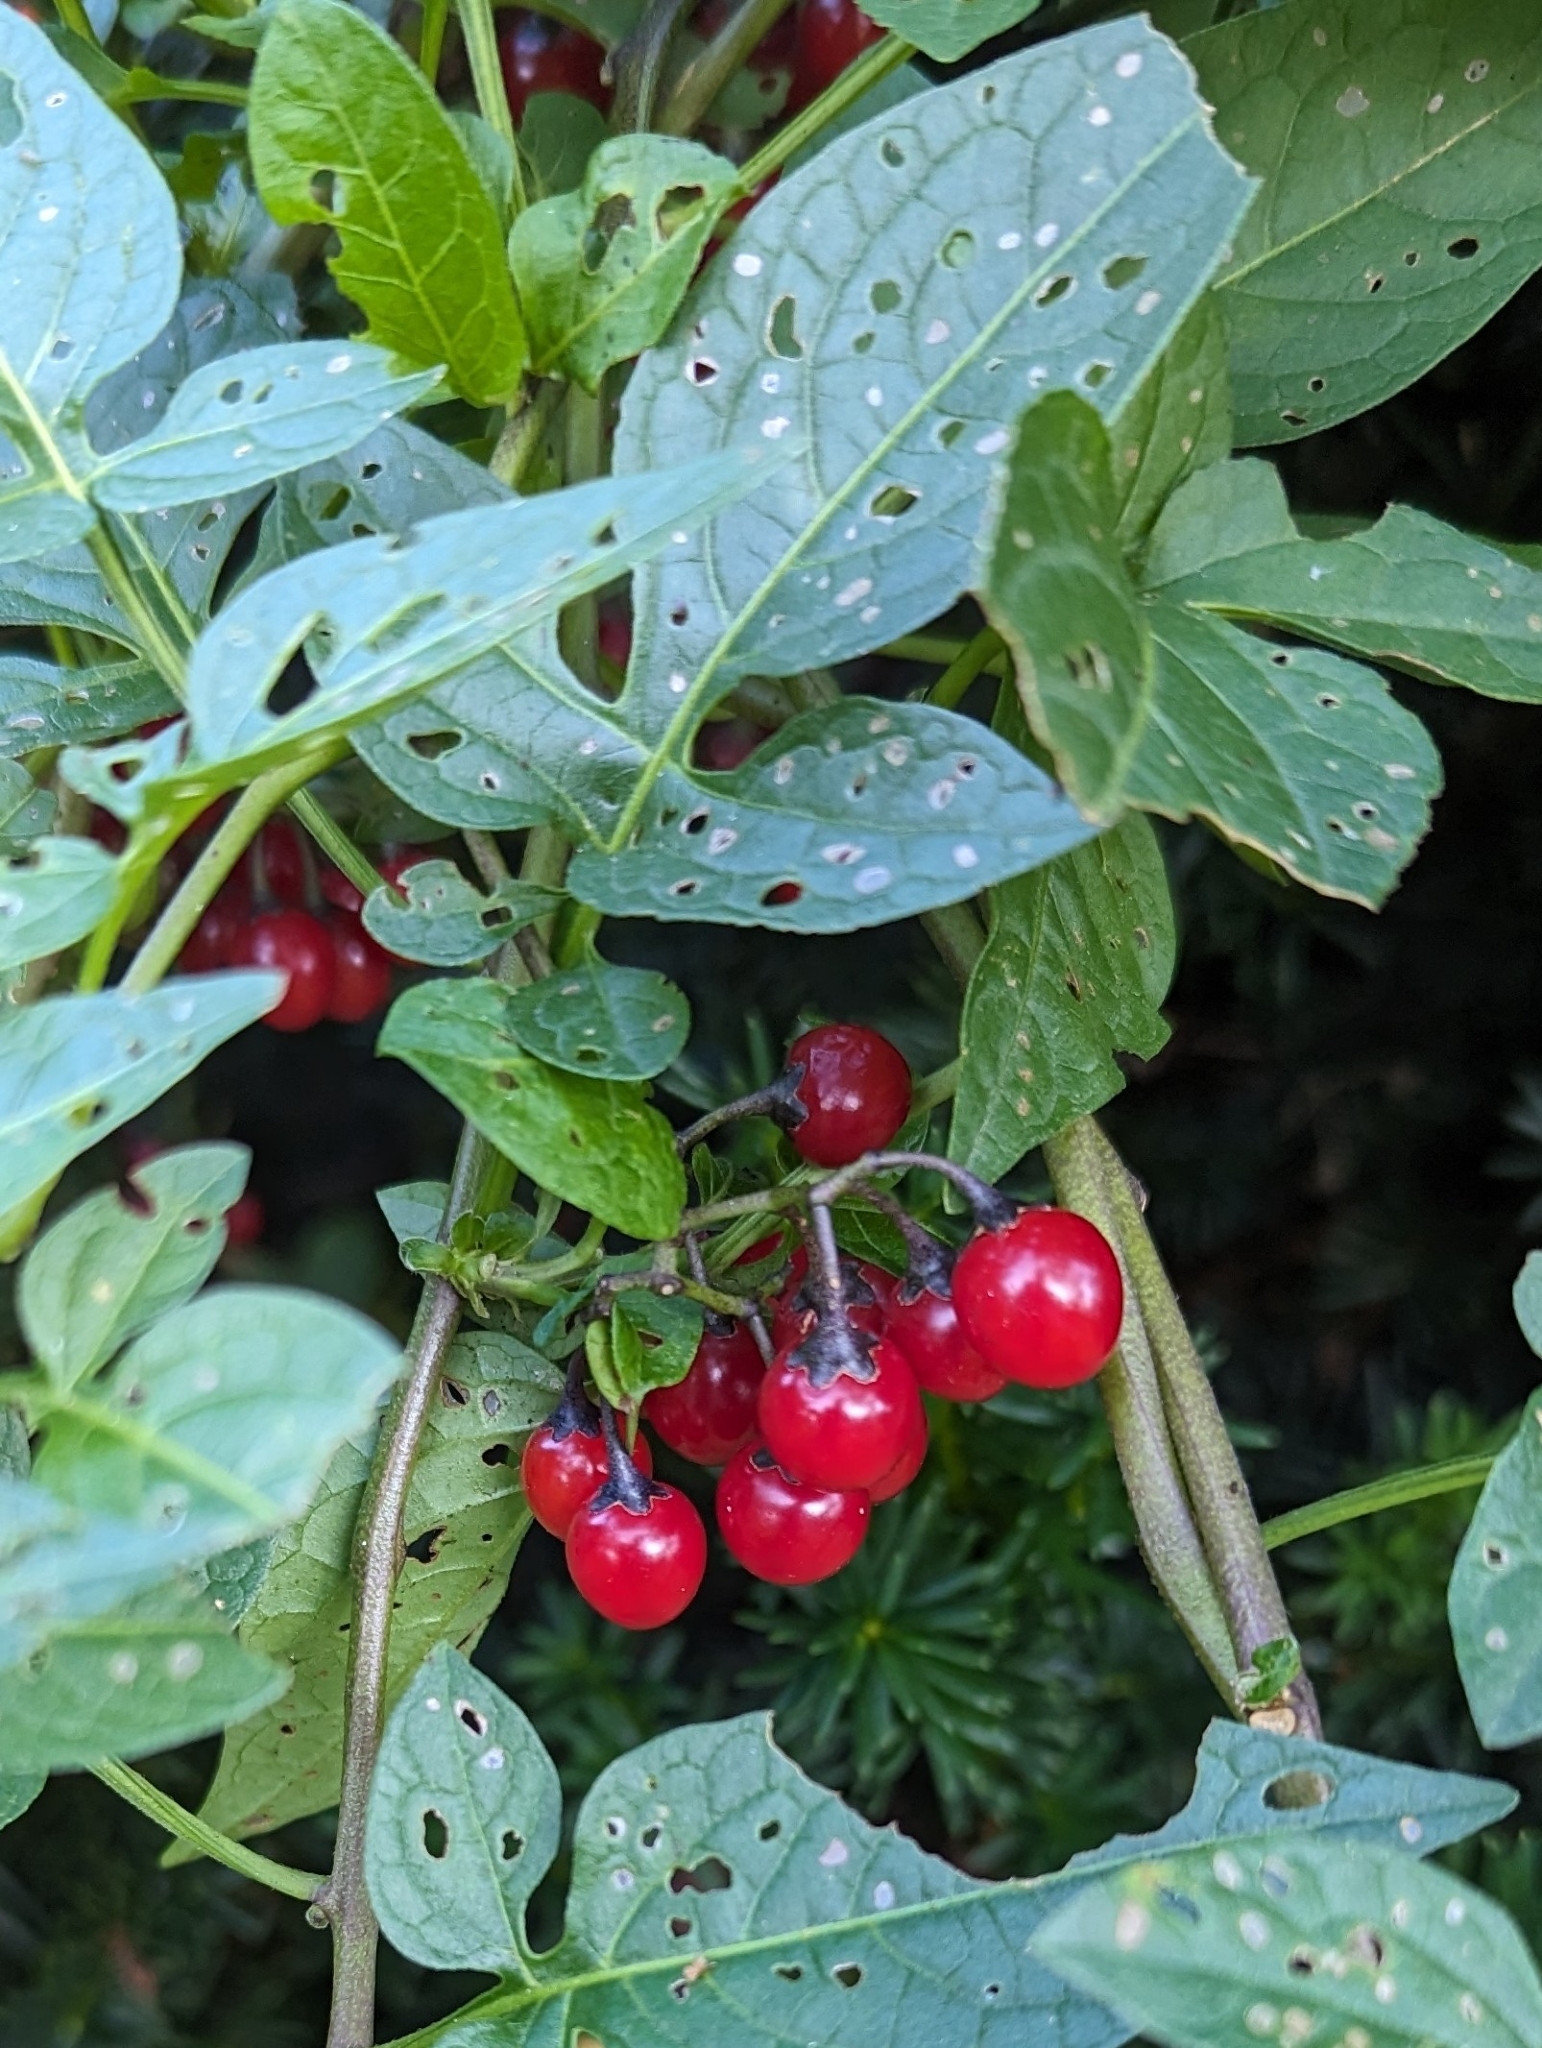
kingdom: Plantae
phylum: Tracheophyta
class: Magnoliopsida
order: Solanales
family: Solanaceae
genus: Solanum
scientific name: Solanum dulcamara
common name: Climbing nightshade
